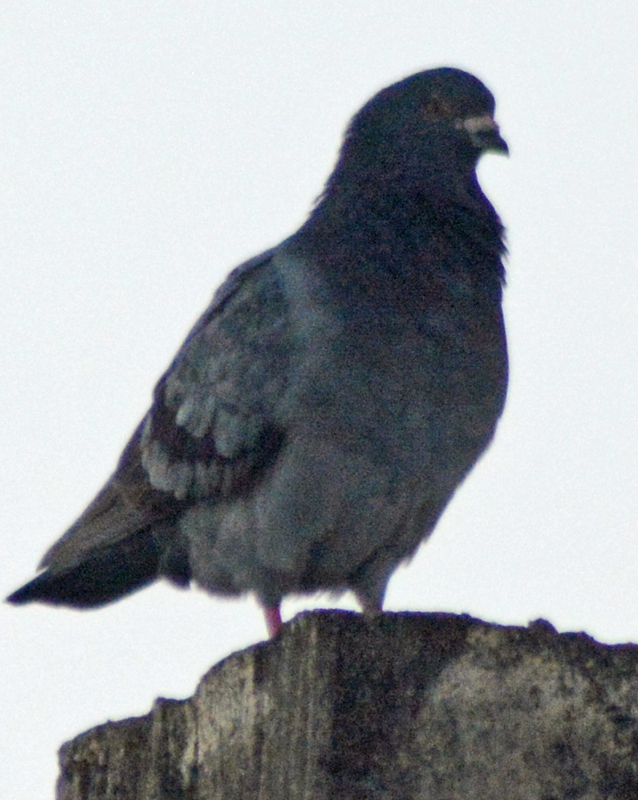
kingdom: Animalia
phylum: Chordata
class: Aves
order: Columbiformes
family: Columbidae
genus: Columba
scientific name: Columba livia
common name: Rock pigeon
